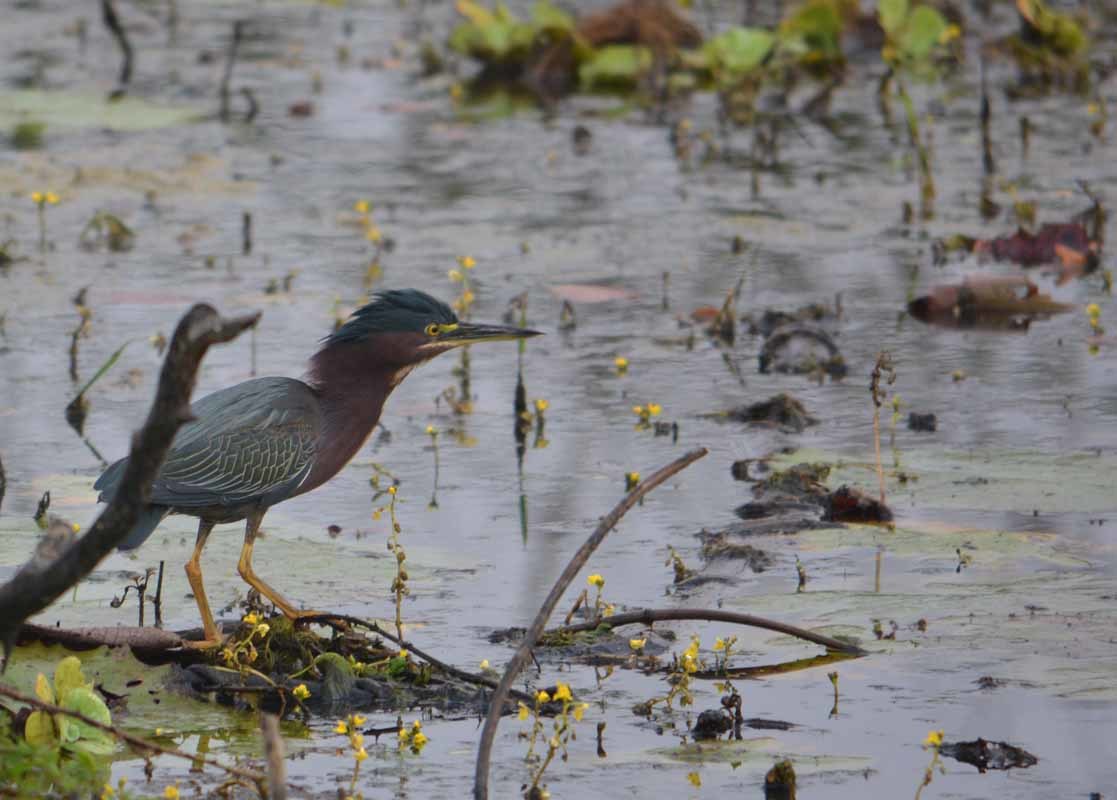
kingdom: Animalia
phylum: Chordata
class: Aves
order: Pelecaniformes
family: Ardeidae
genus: Butorides
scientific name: Butorides virescens
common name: Green heron
